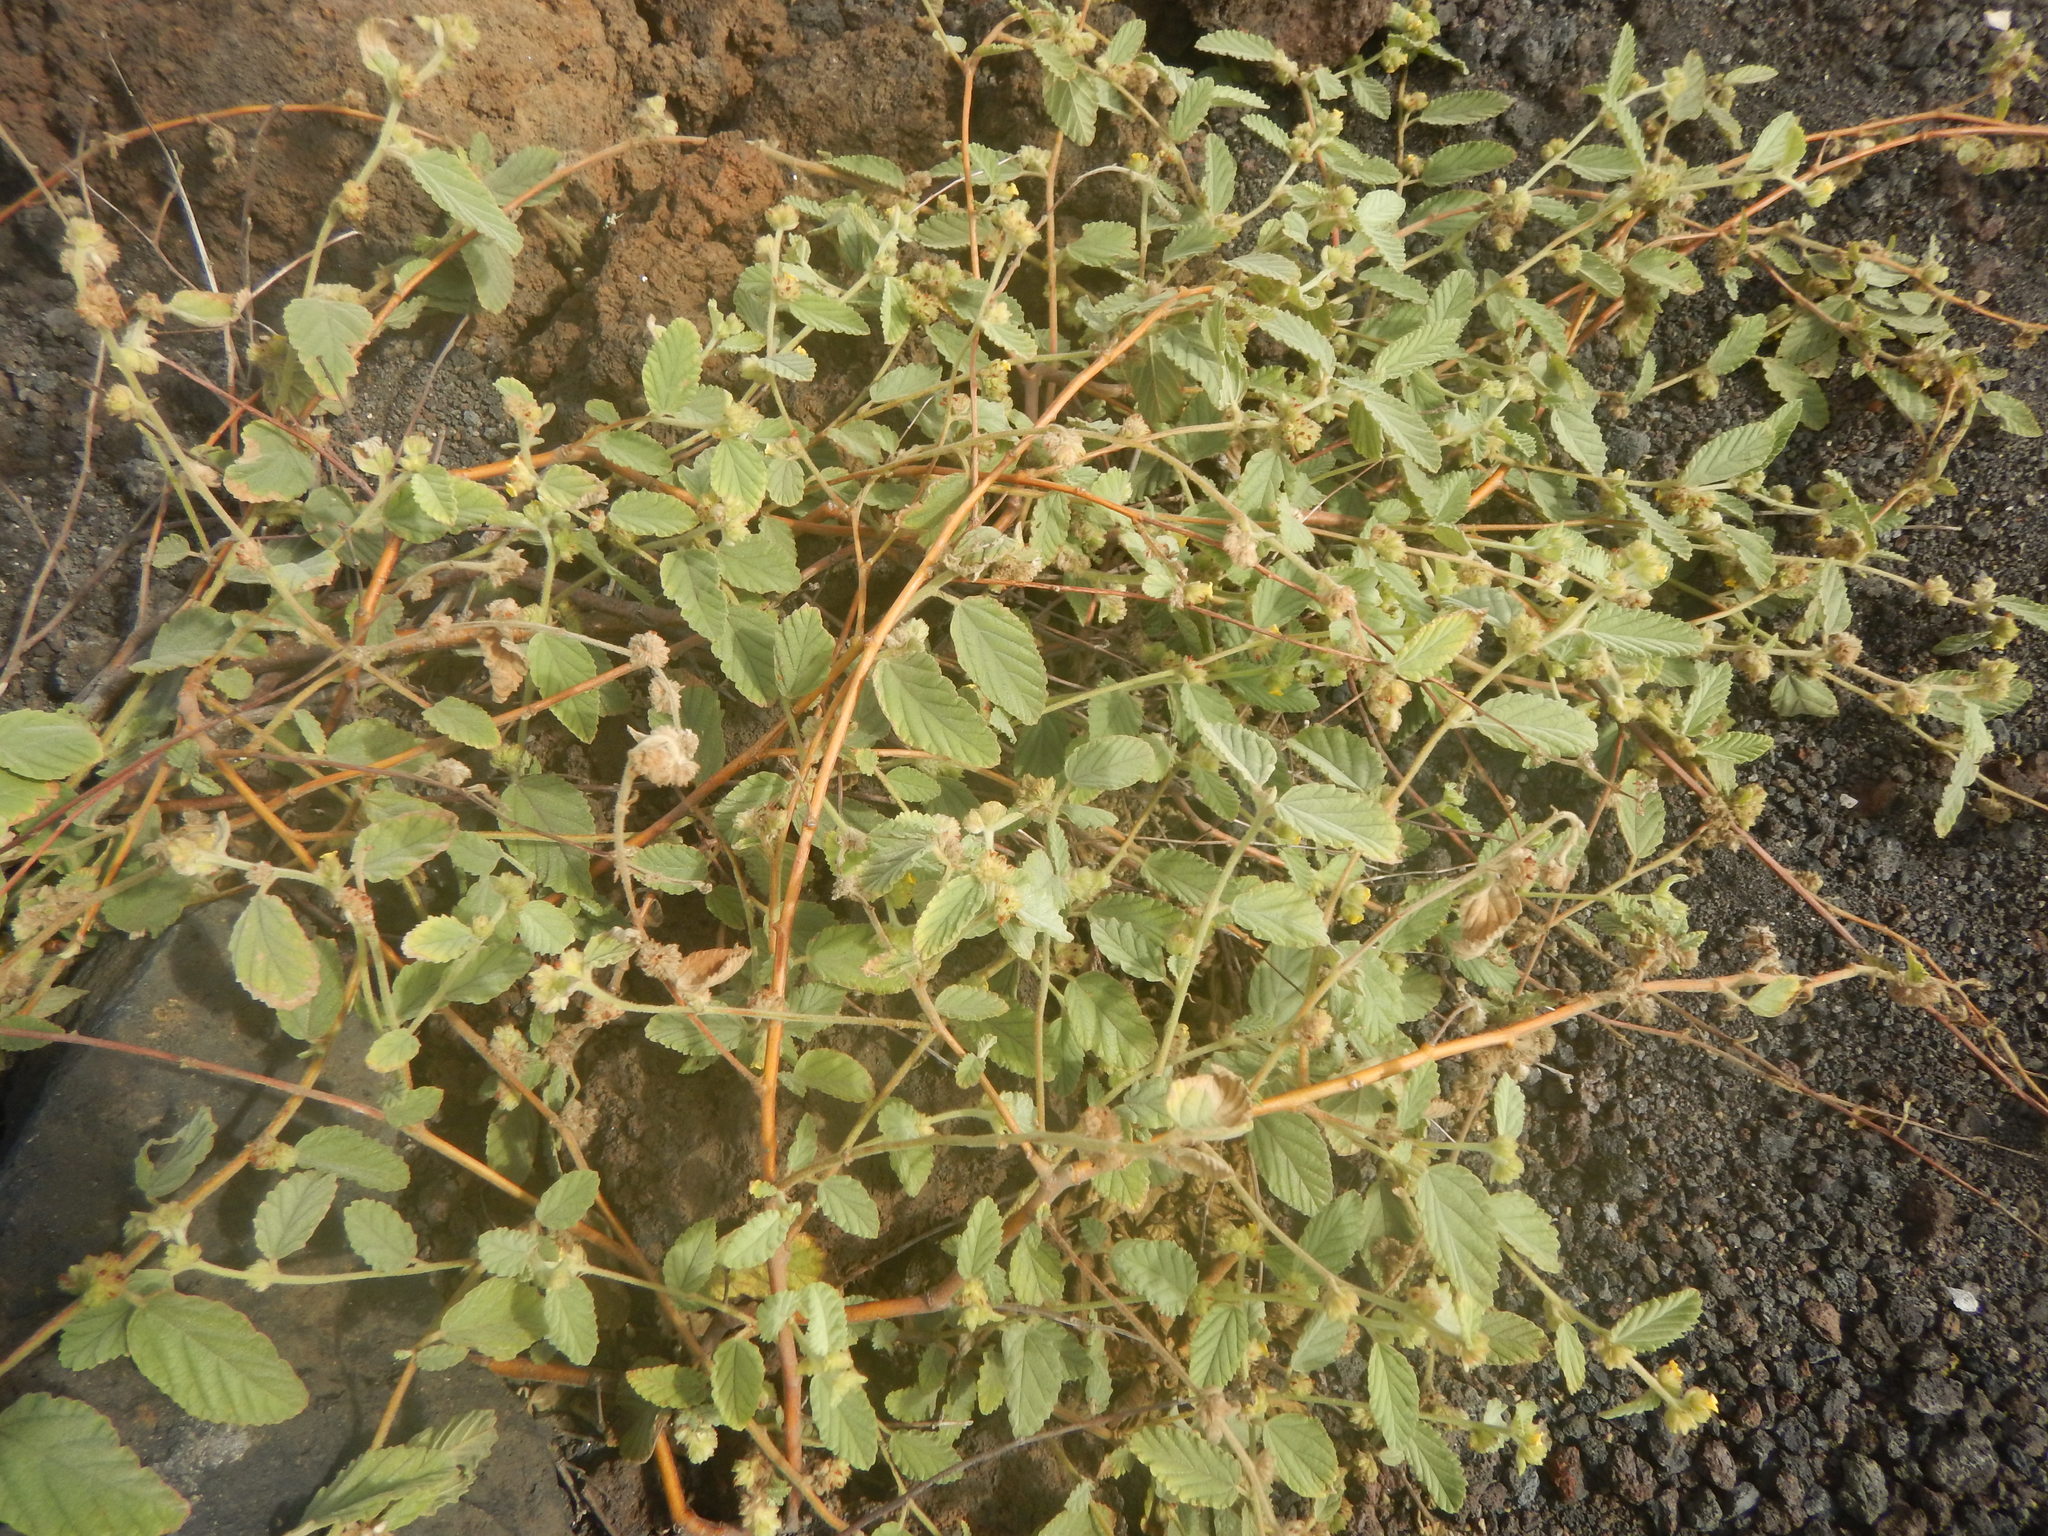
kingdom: Plantae
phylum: Tracheophyta
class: Magnoliopsida
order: Malvales
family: Malvaceae
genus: Waltheria
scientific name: Waltheria indica
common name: Leather-coat
